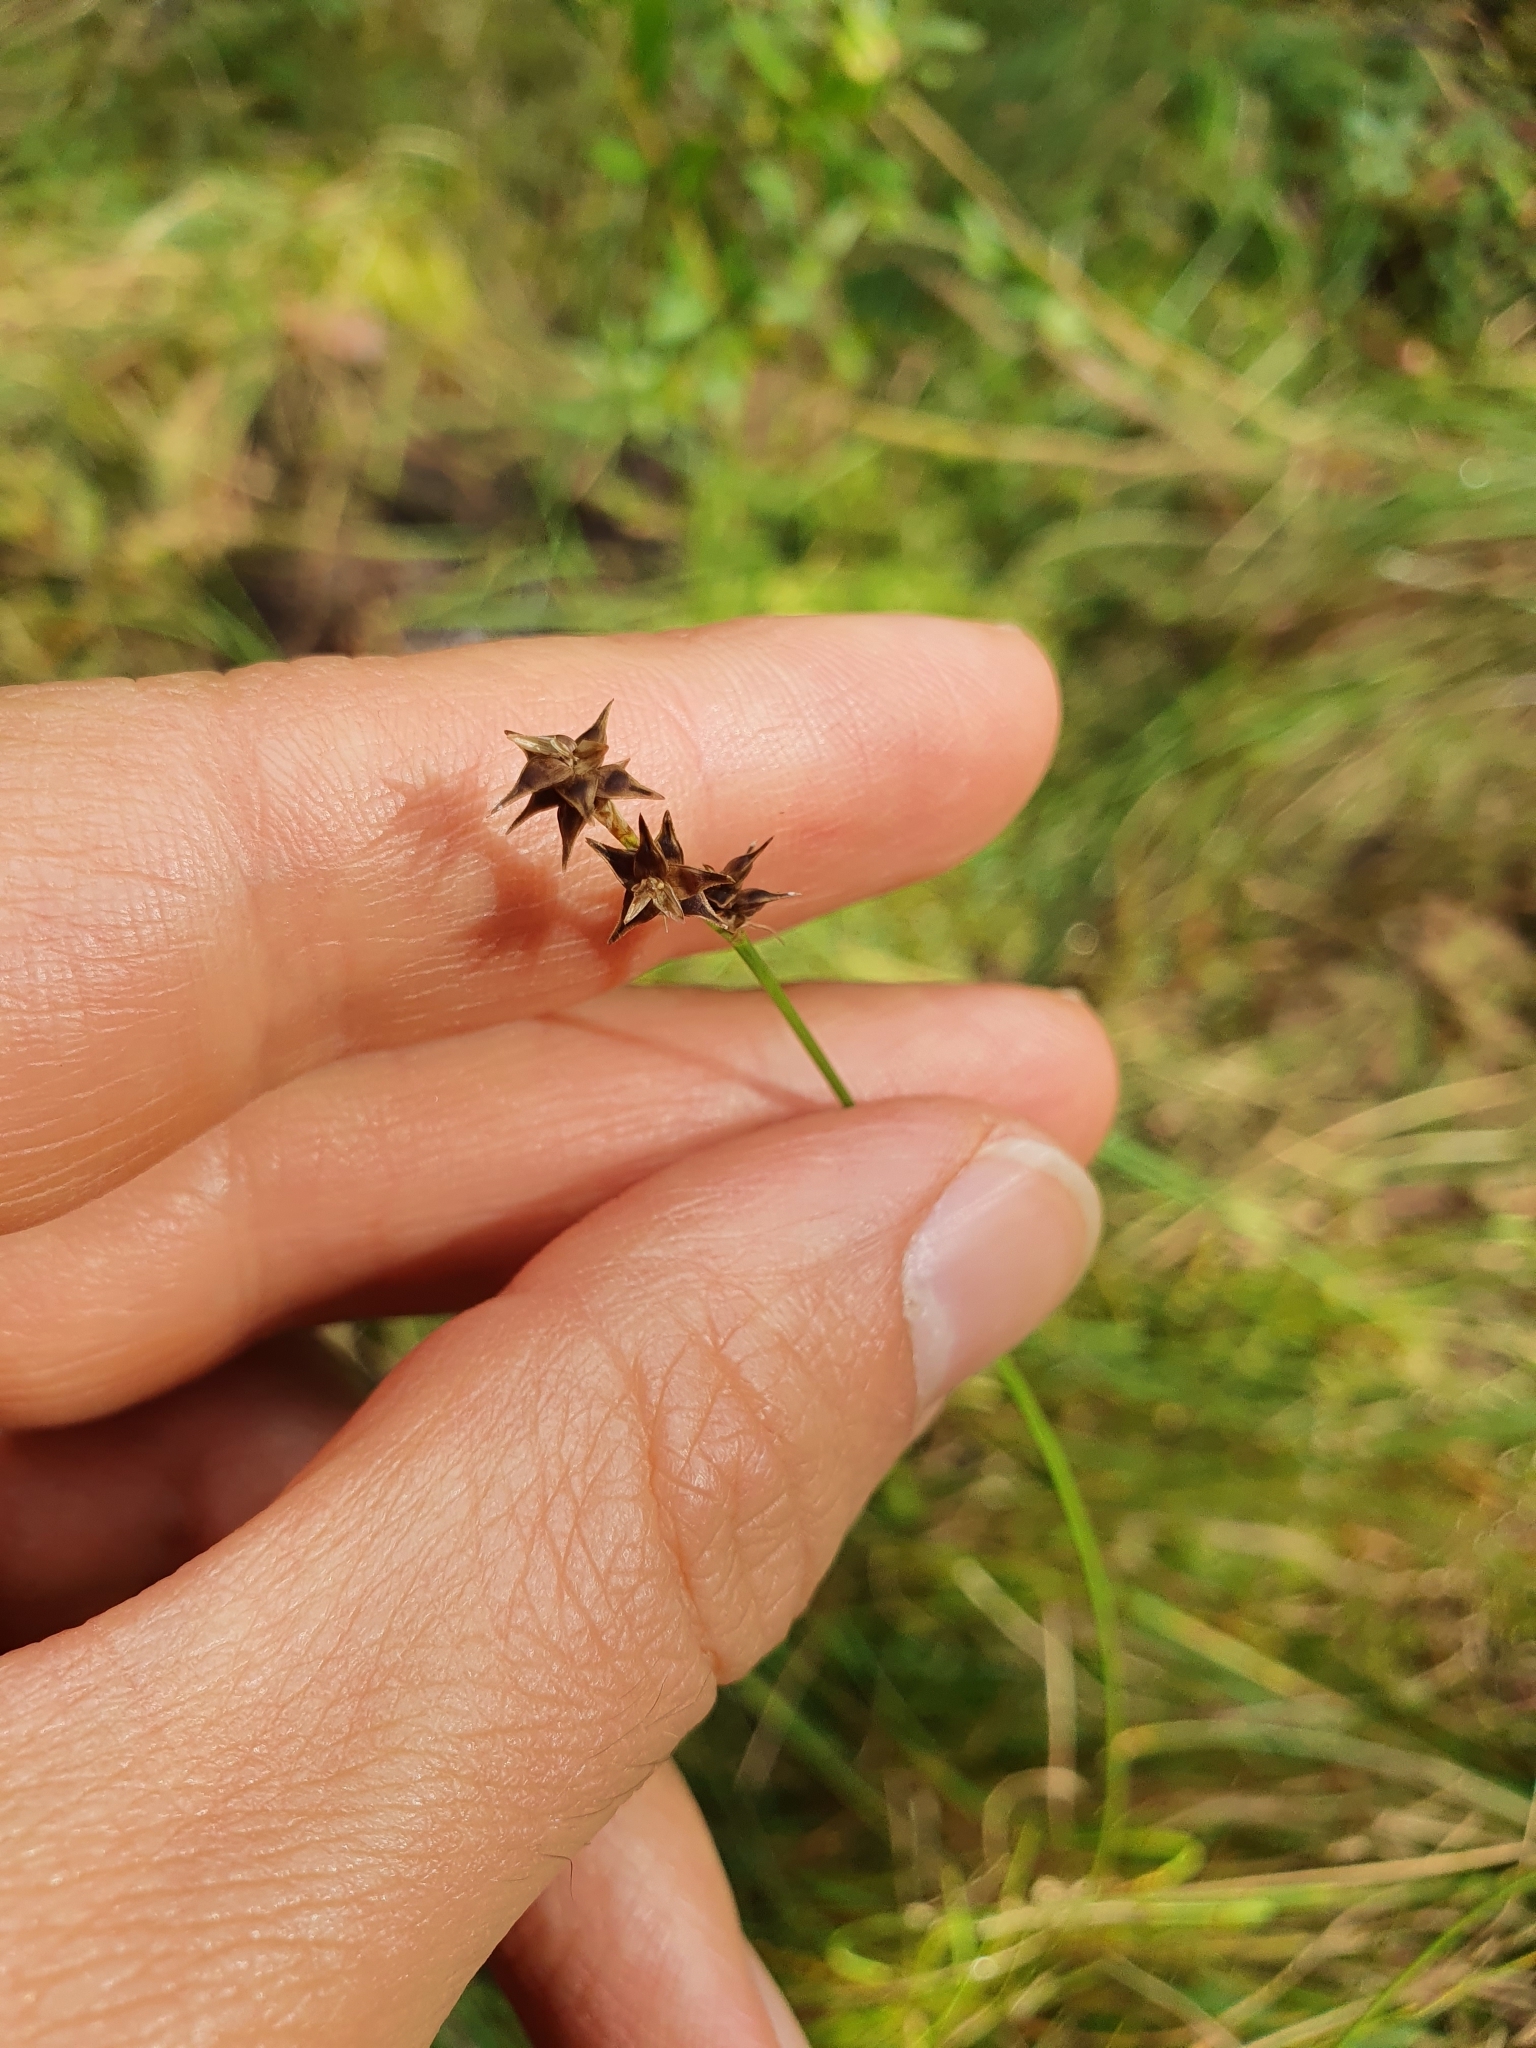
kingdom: Plantae
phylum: Tracheophyta
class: Liliopsida
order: Poales
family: Cyperaceae
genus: Carex
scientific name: Carex echinata
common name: Star sedge
